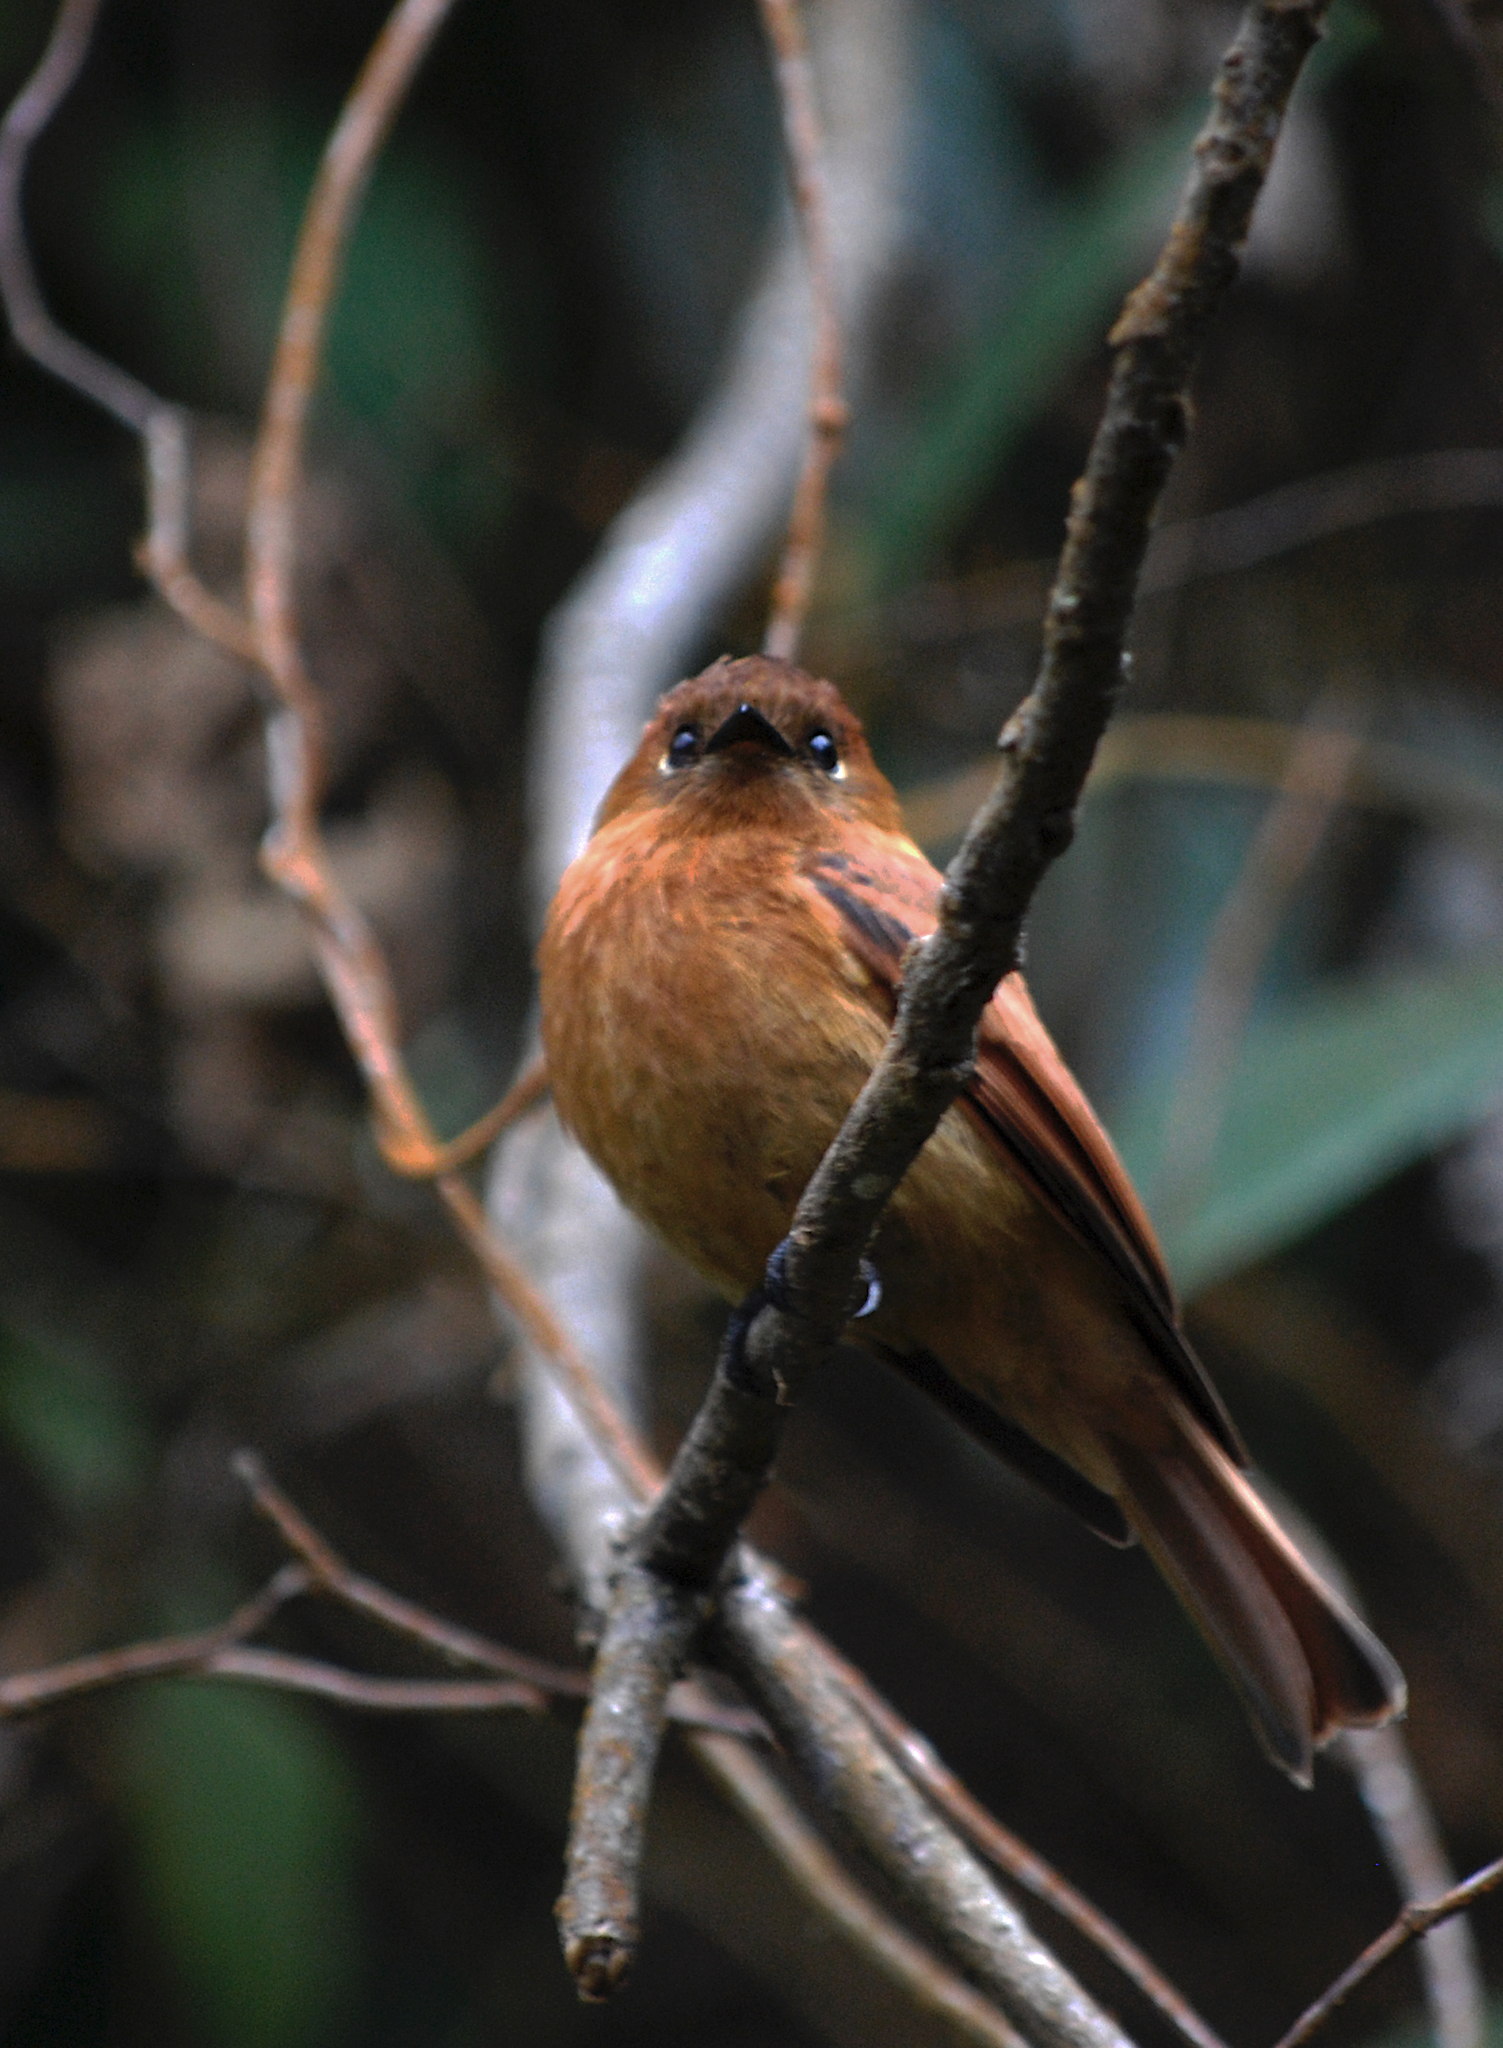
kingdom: Animalia
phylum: Chordata
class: Aves
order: Passeriformes
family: Tyrannidae
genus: Pyrrhomyias
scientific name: Pyrrhomyias cinnamomeus
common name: Cinnamon flycatcher
